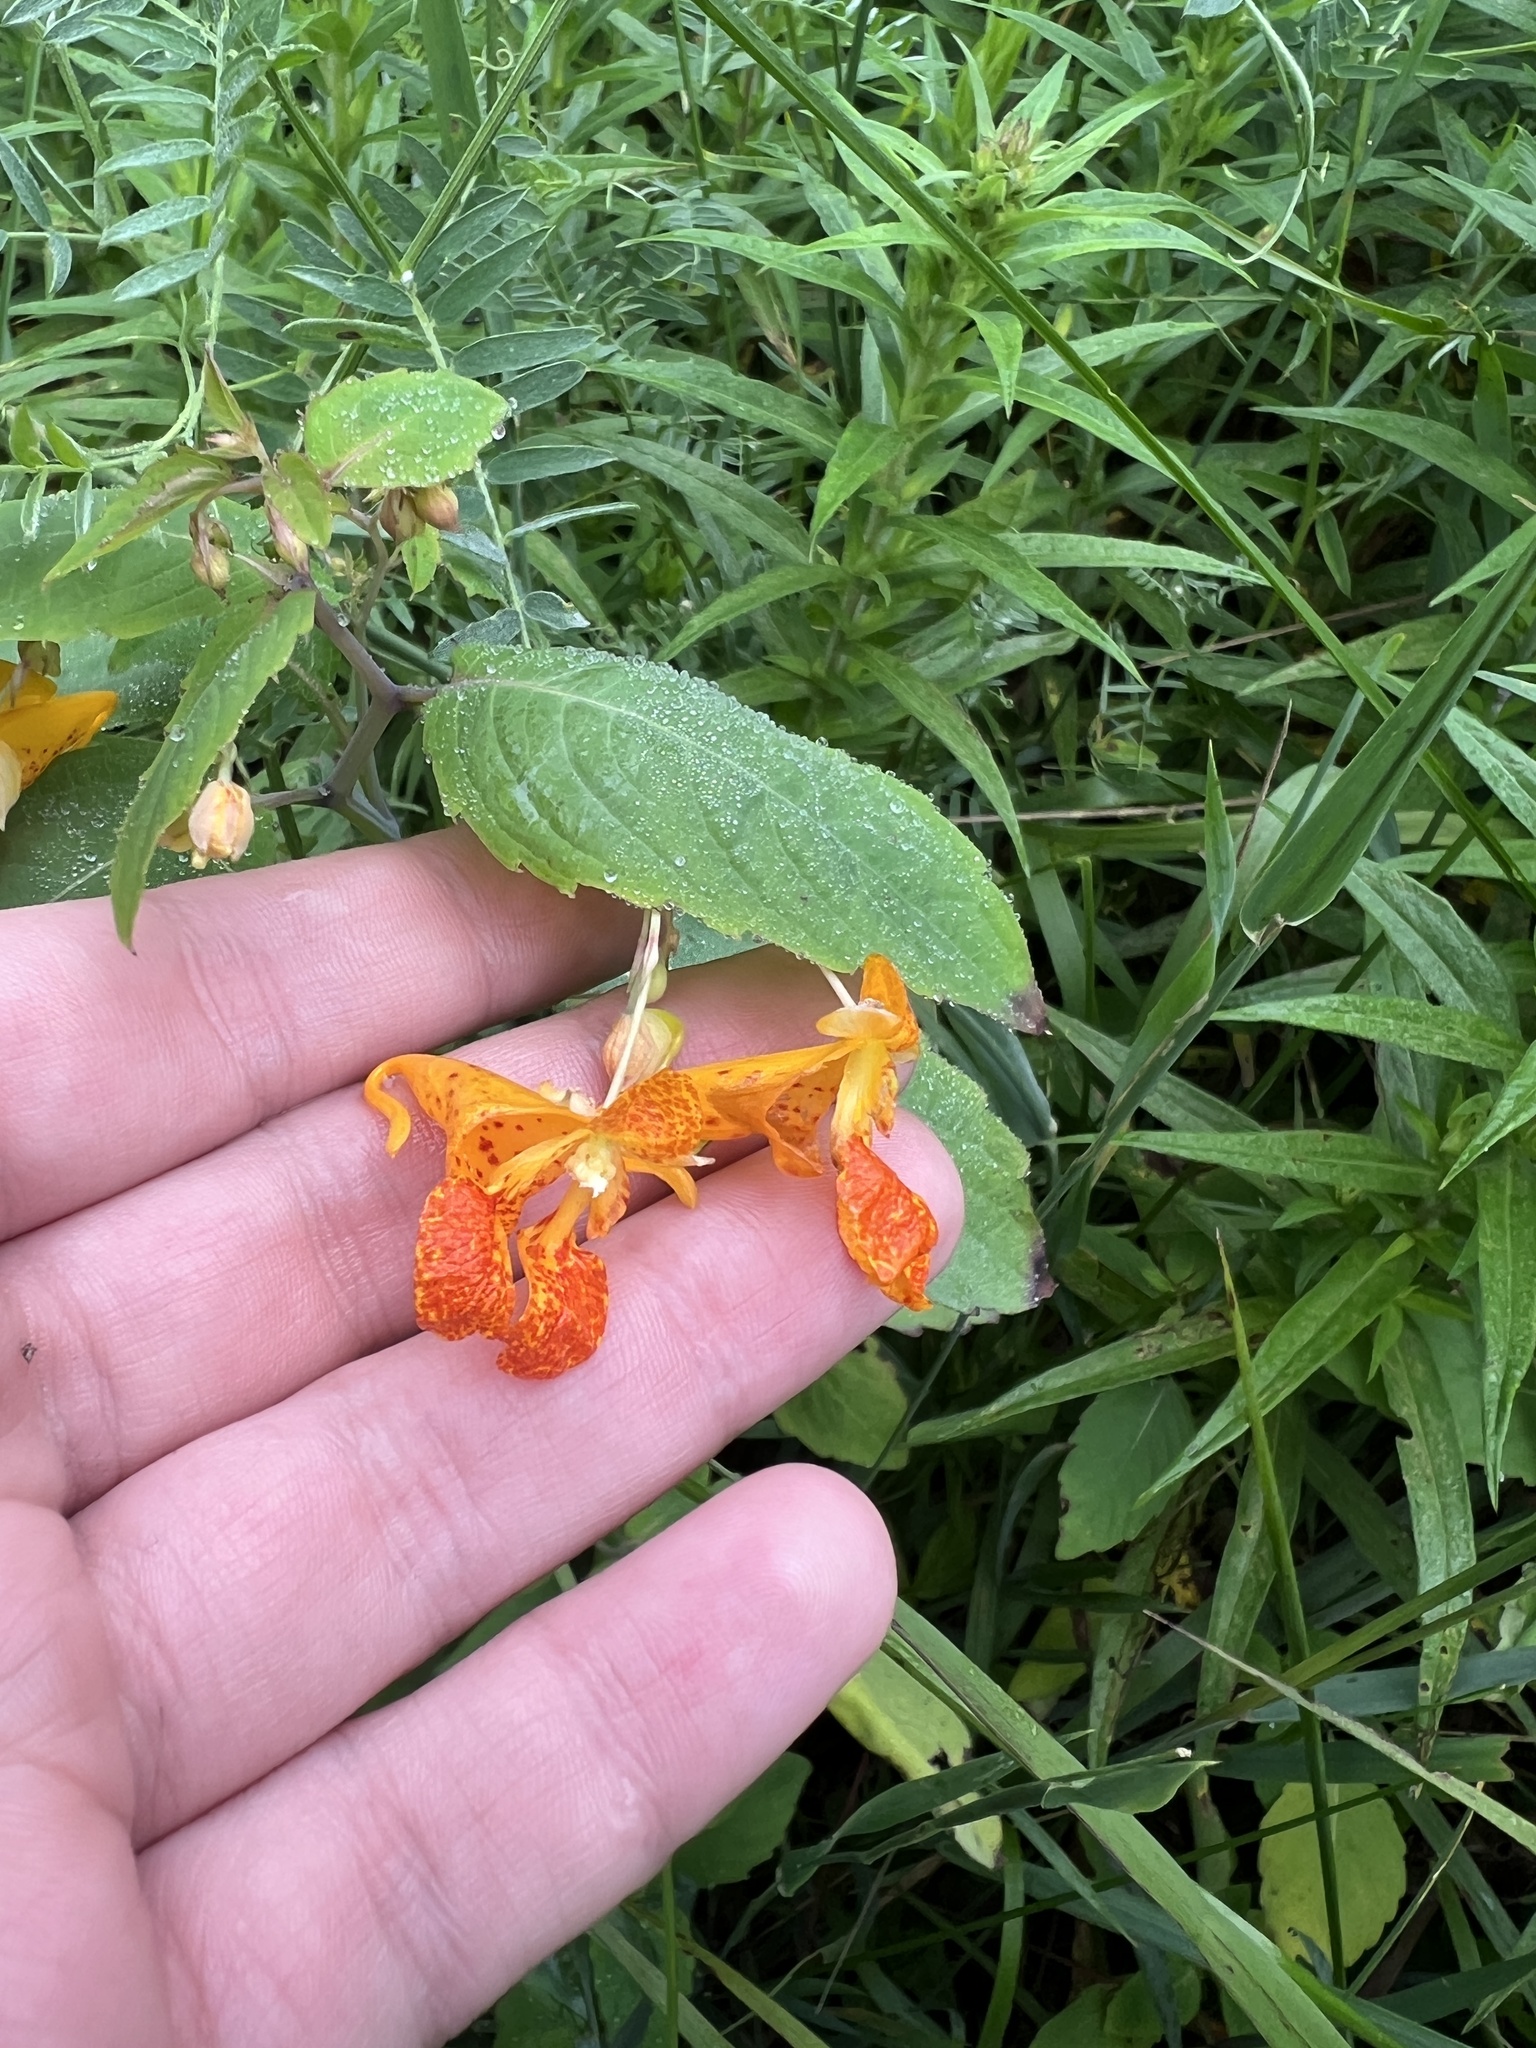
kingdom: Plantae
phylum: Tracheophyta
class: Magnoliopsida
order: Ericales
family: Balsaminaceae
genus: Impatiens
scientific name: Impatiens capensis
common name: Orange balsam
